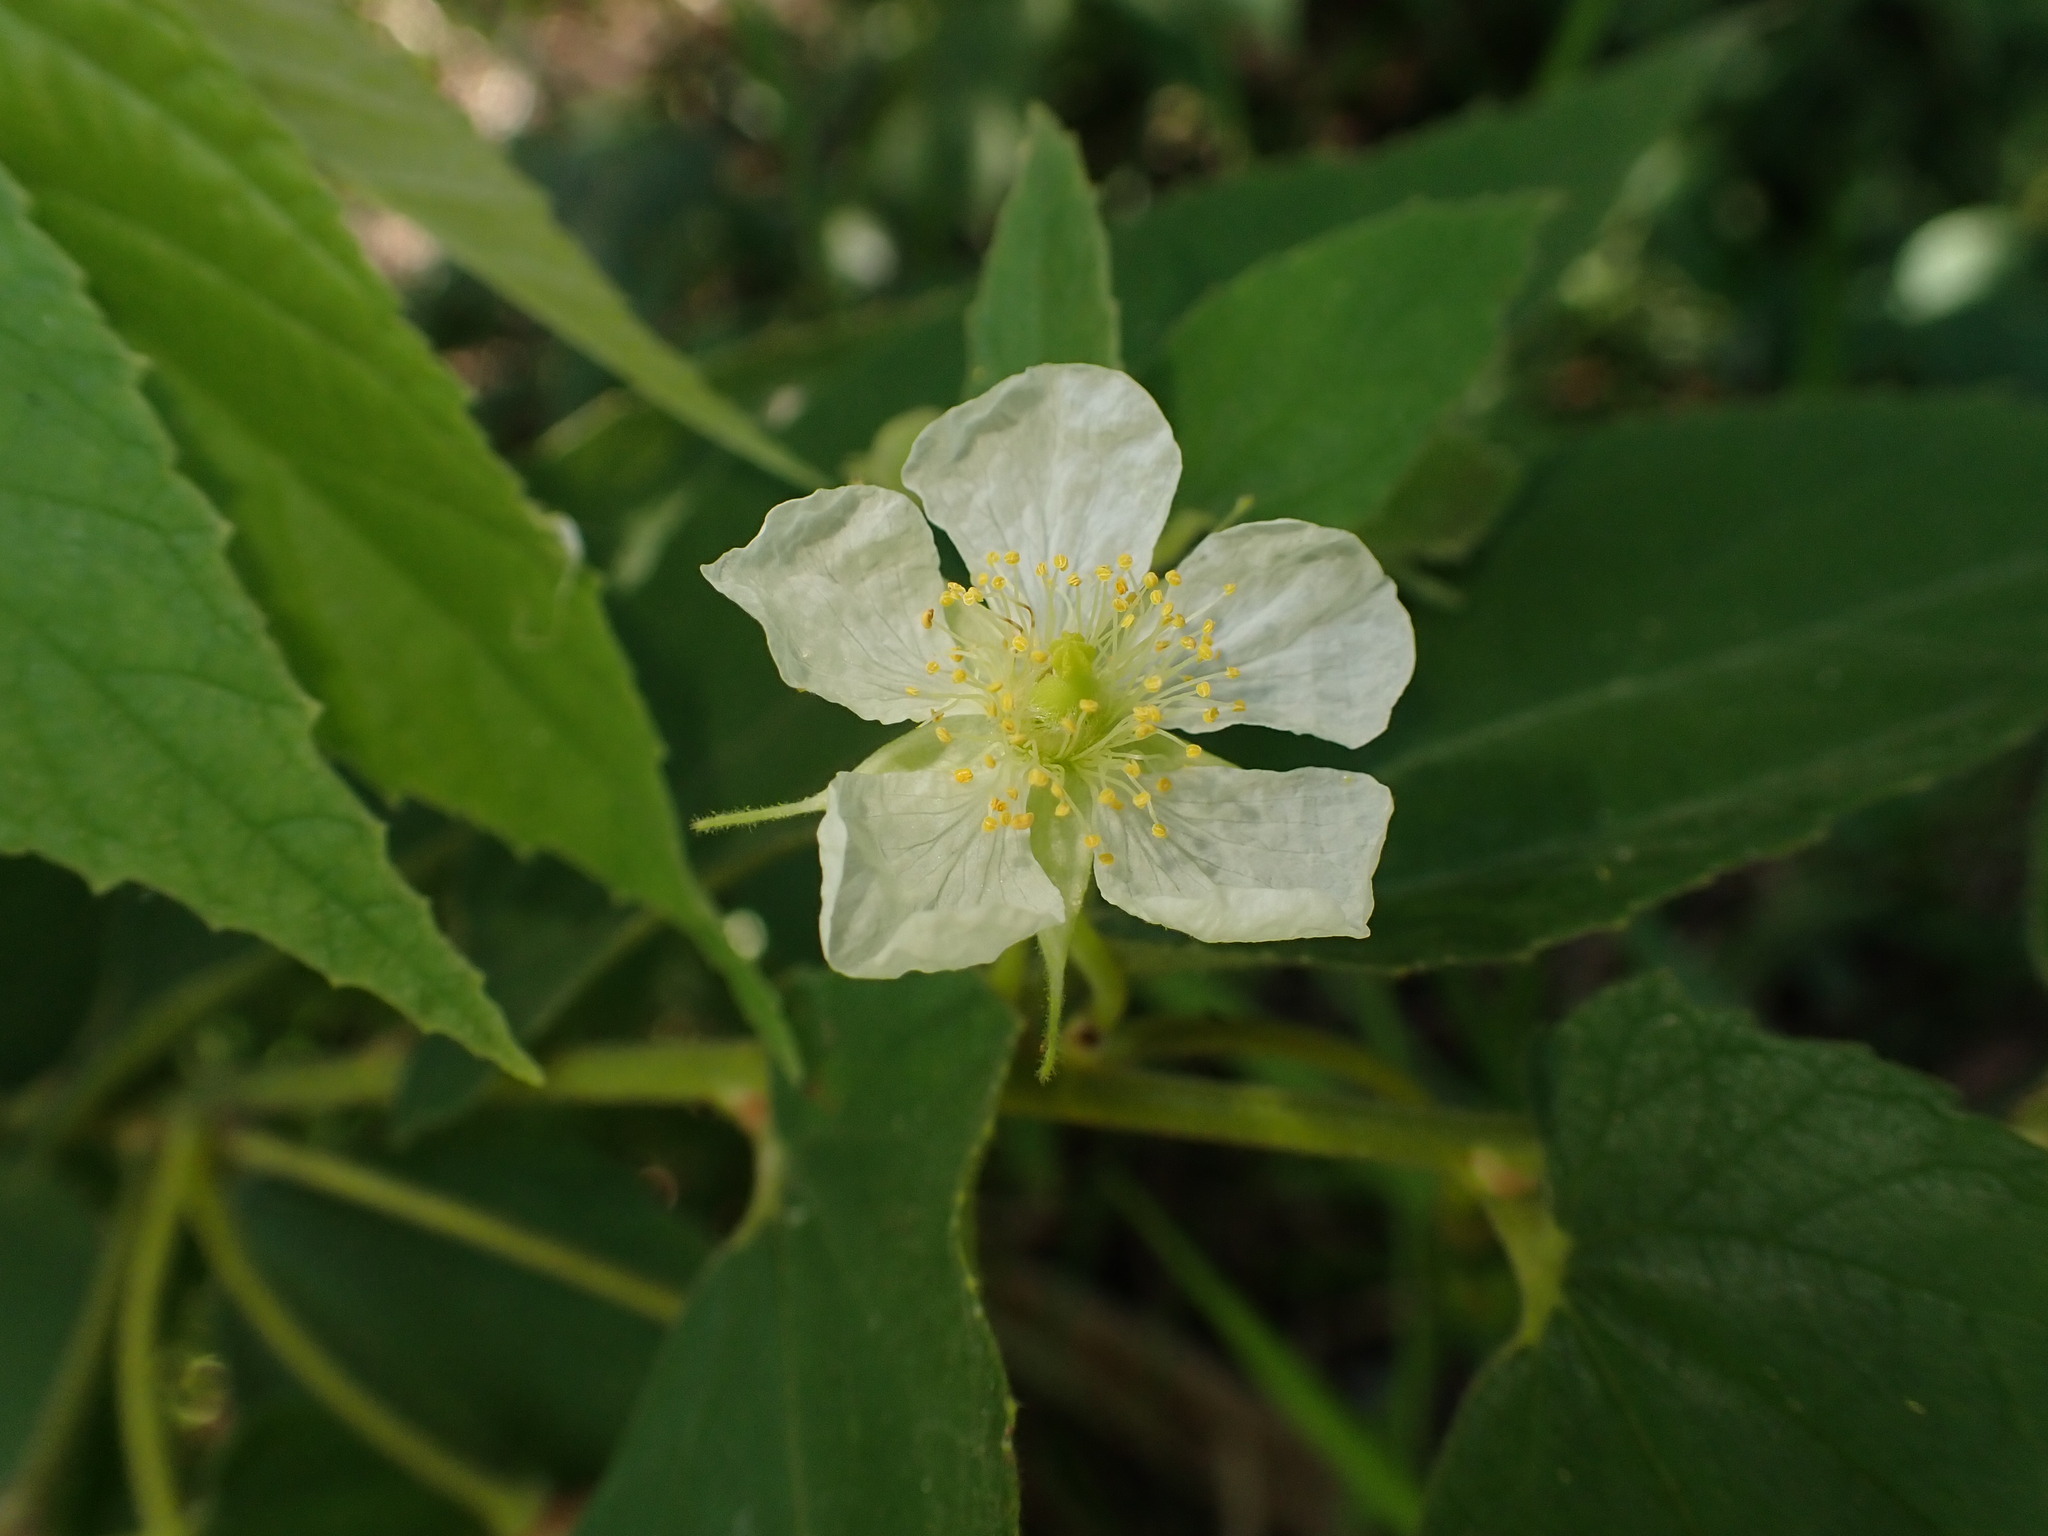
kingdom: Plantae
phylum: Tracheophyta
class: Magnoliopsida
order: Malvales
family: Muntingiaceae
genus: Muntingia
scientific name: Muntingia calabura
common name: Strawberrytree
